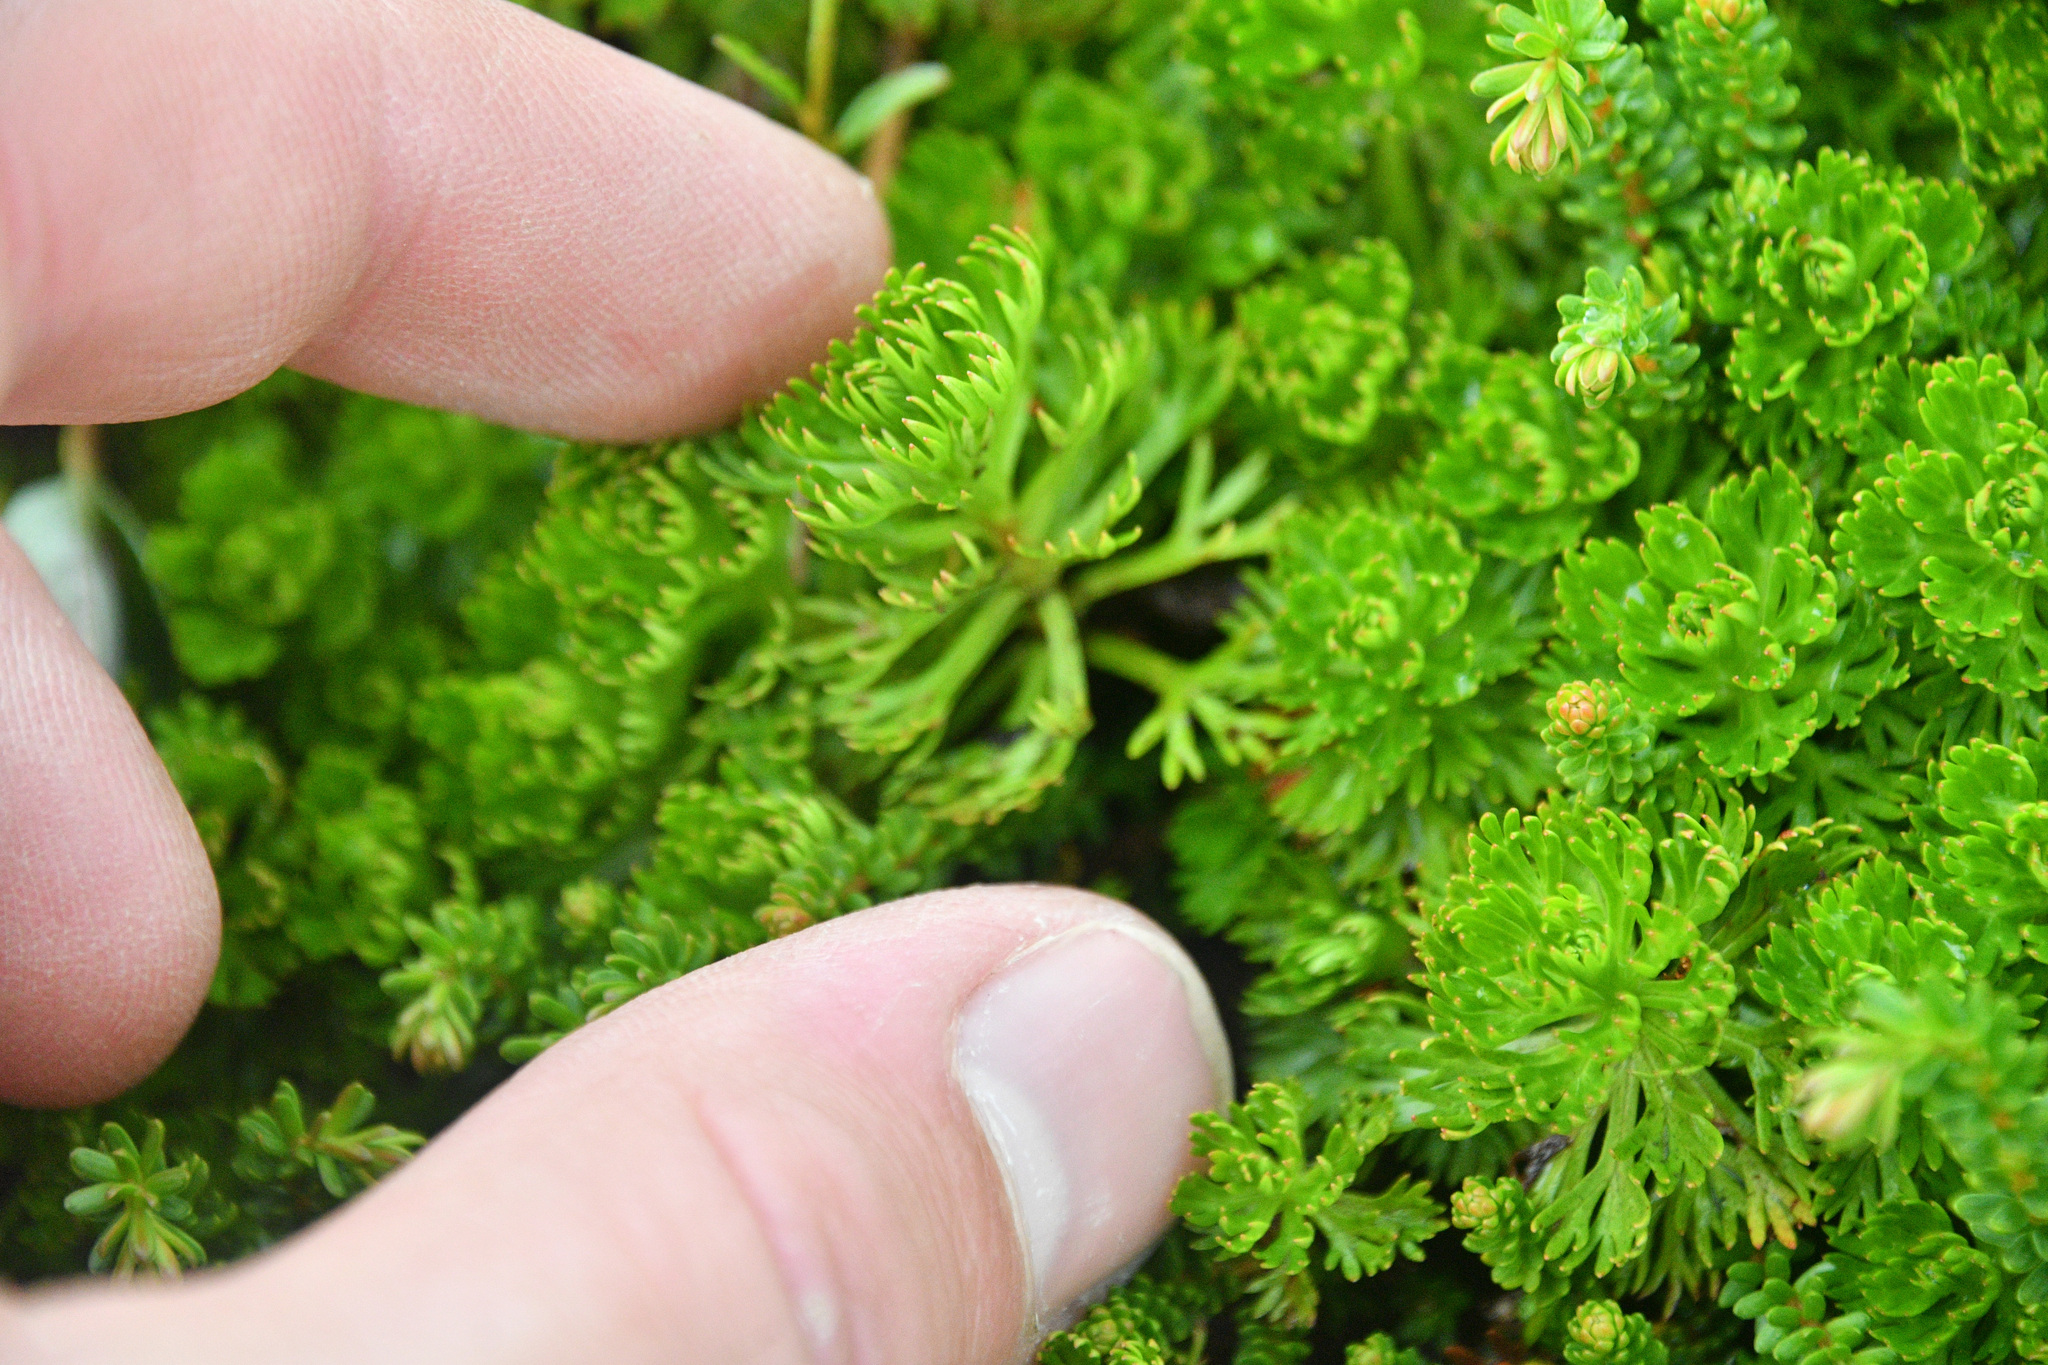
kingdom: Plantae
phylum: Tracheophyta
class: Magnoliopsida
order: Rosales
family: Rosaceae
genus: Luetkea
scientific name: Luetkea pectinata
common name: Partridgefoot
